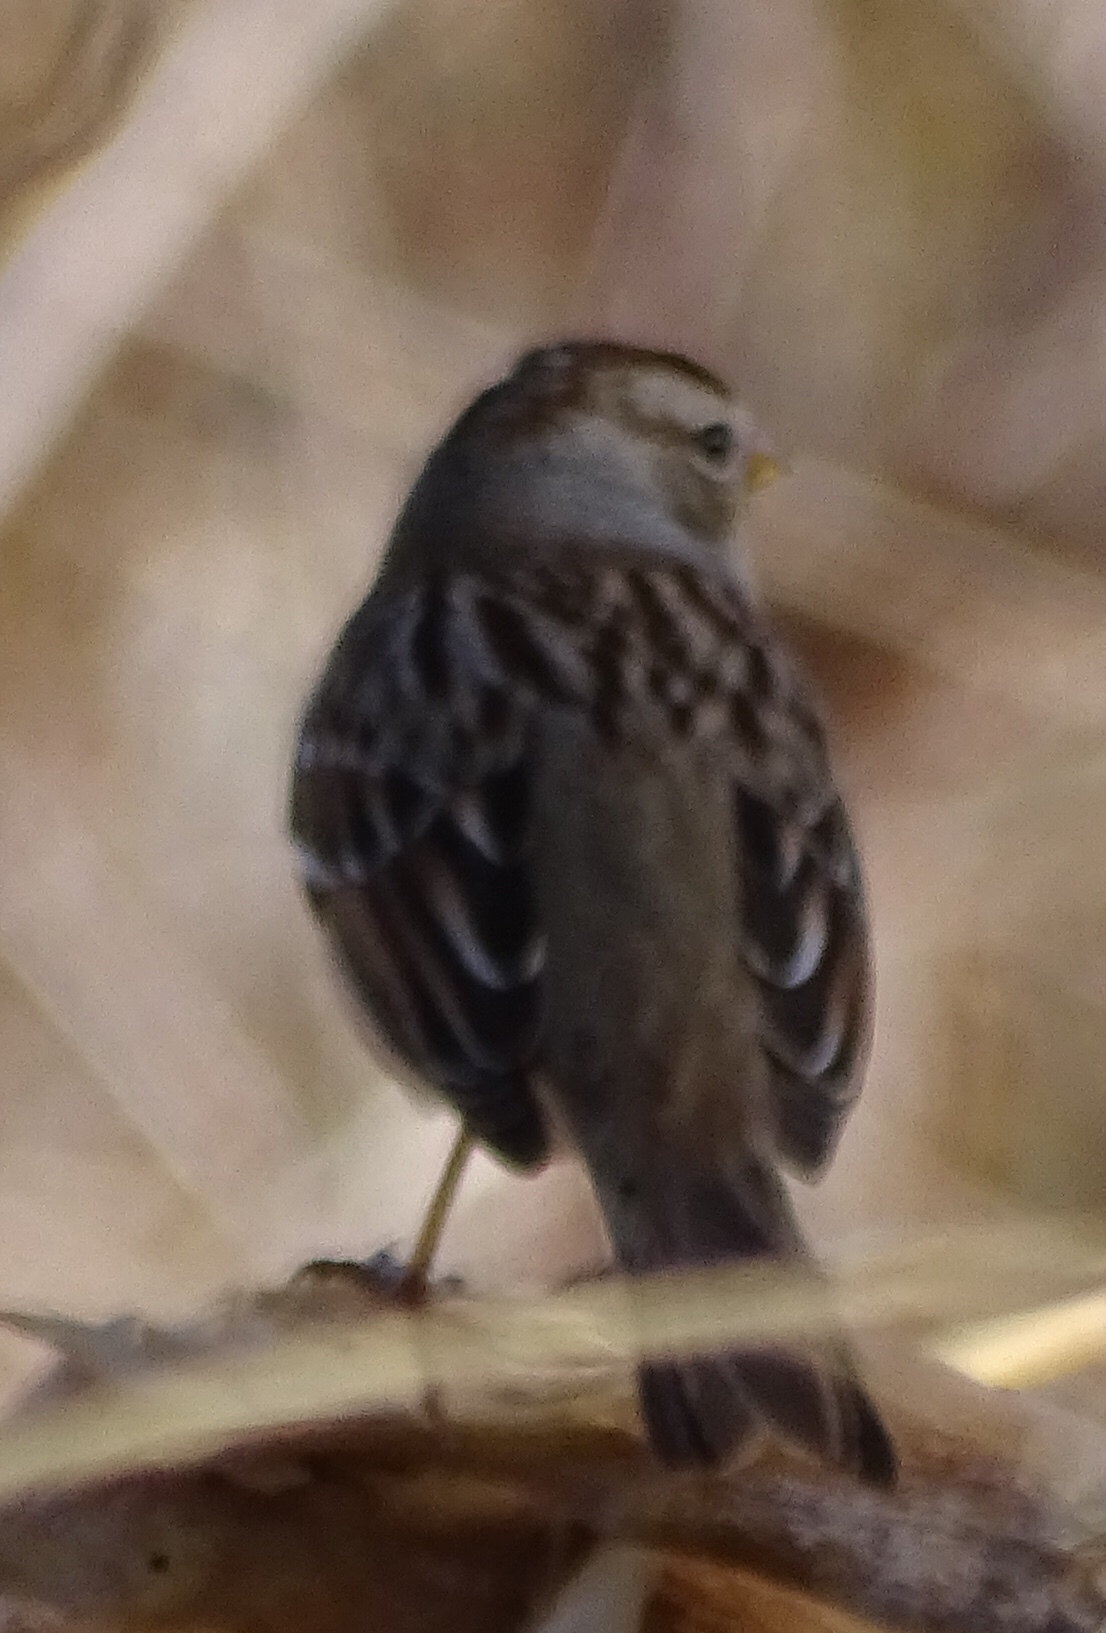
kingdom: Animalia
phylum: Chordata
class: Aves
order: Passeriformes
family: Passerellidae
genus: Zonotrichia
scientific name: Zonotrichia leucophrys
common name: White-crowned sparrow
